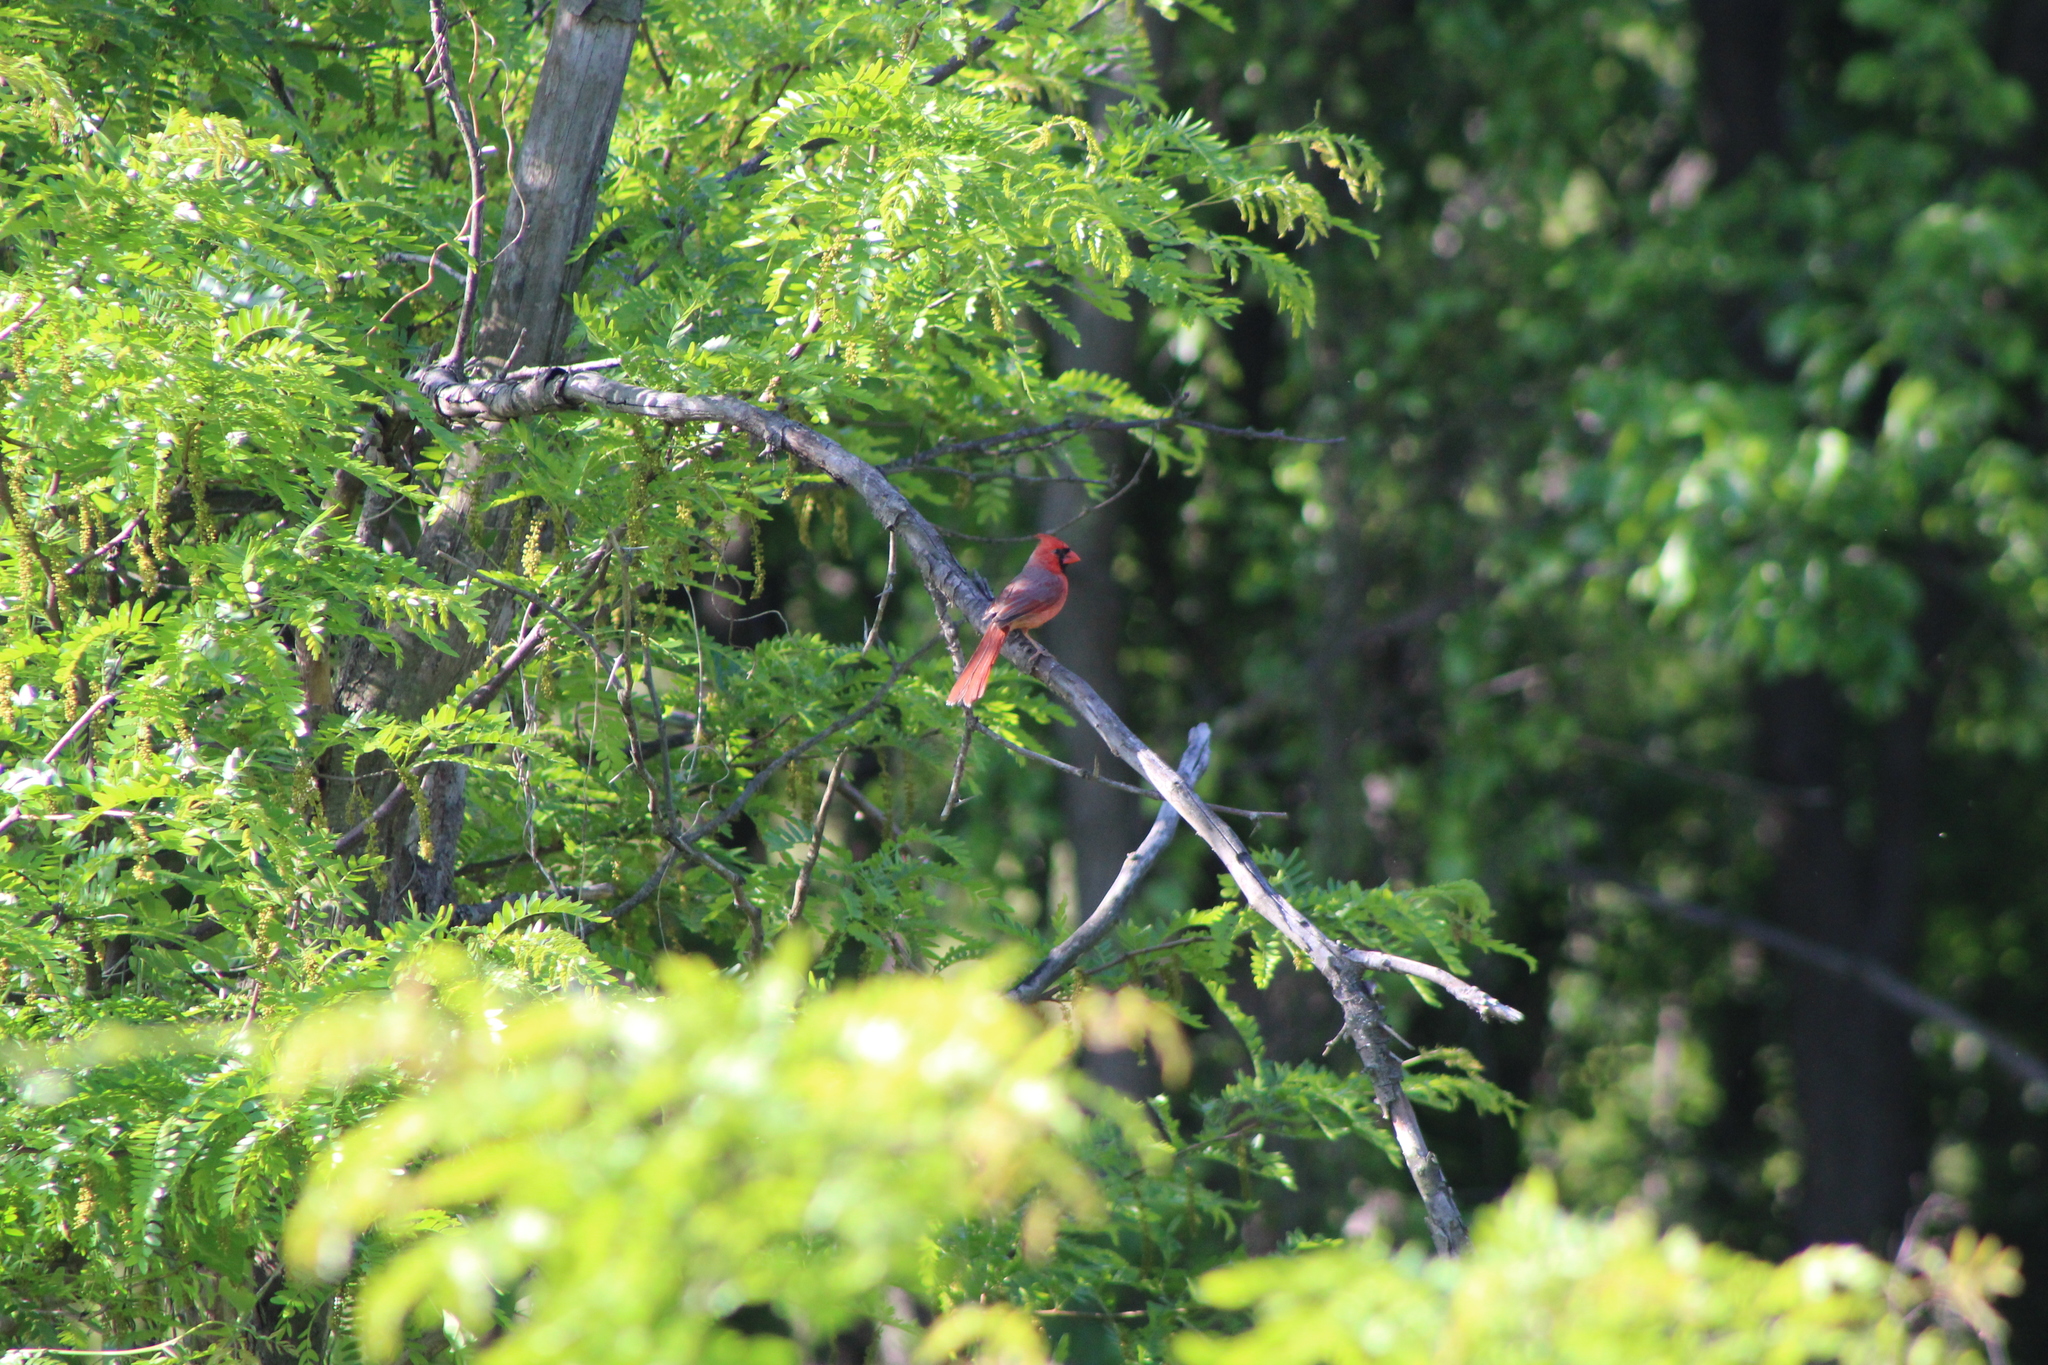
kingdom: Animalia
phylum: Chordata
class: Aves
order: Passeriformes
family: Cardinalidae
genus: Cardinalis
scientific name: Cardinalis cardinalis
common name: Northern cardinal
